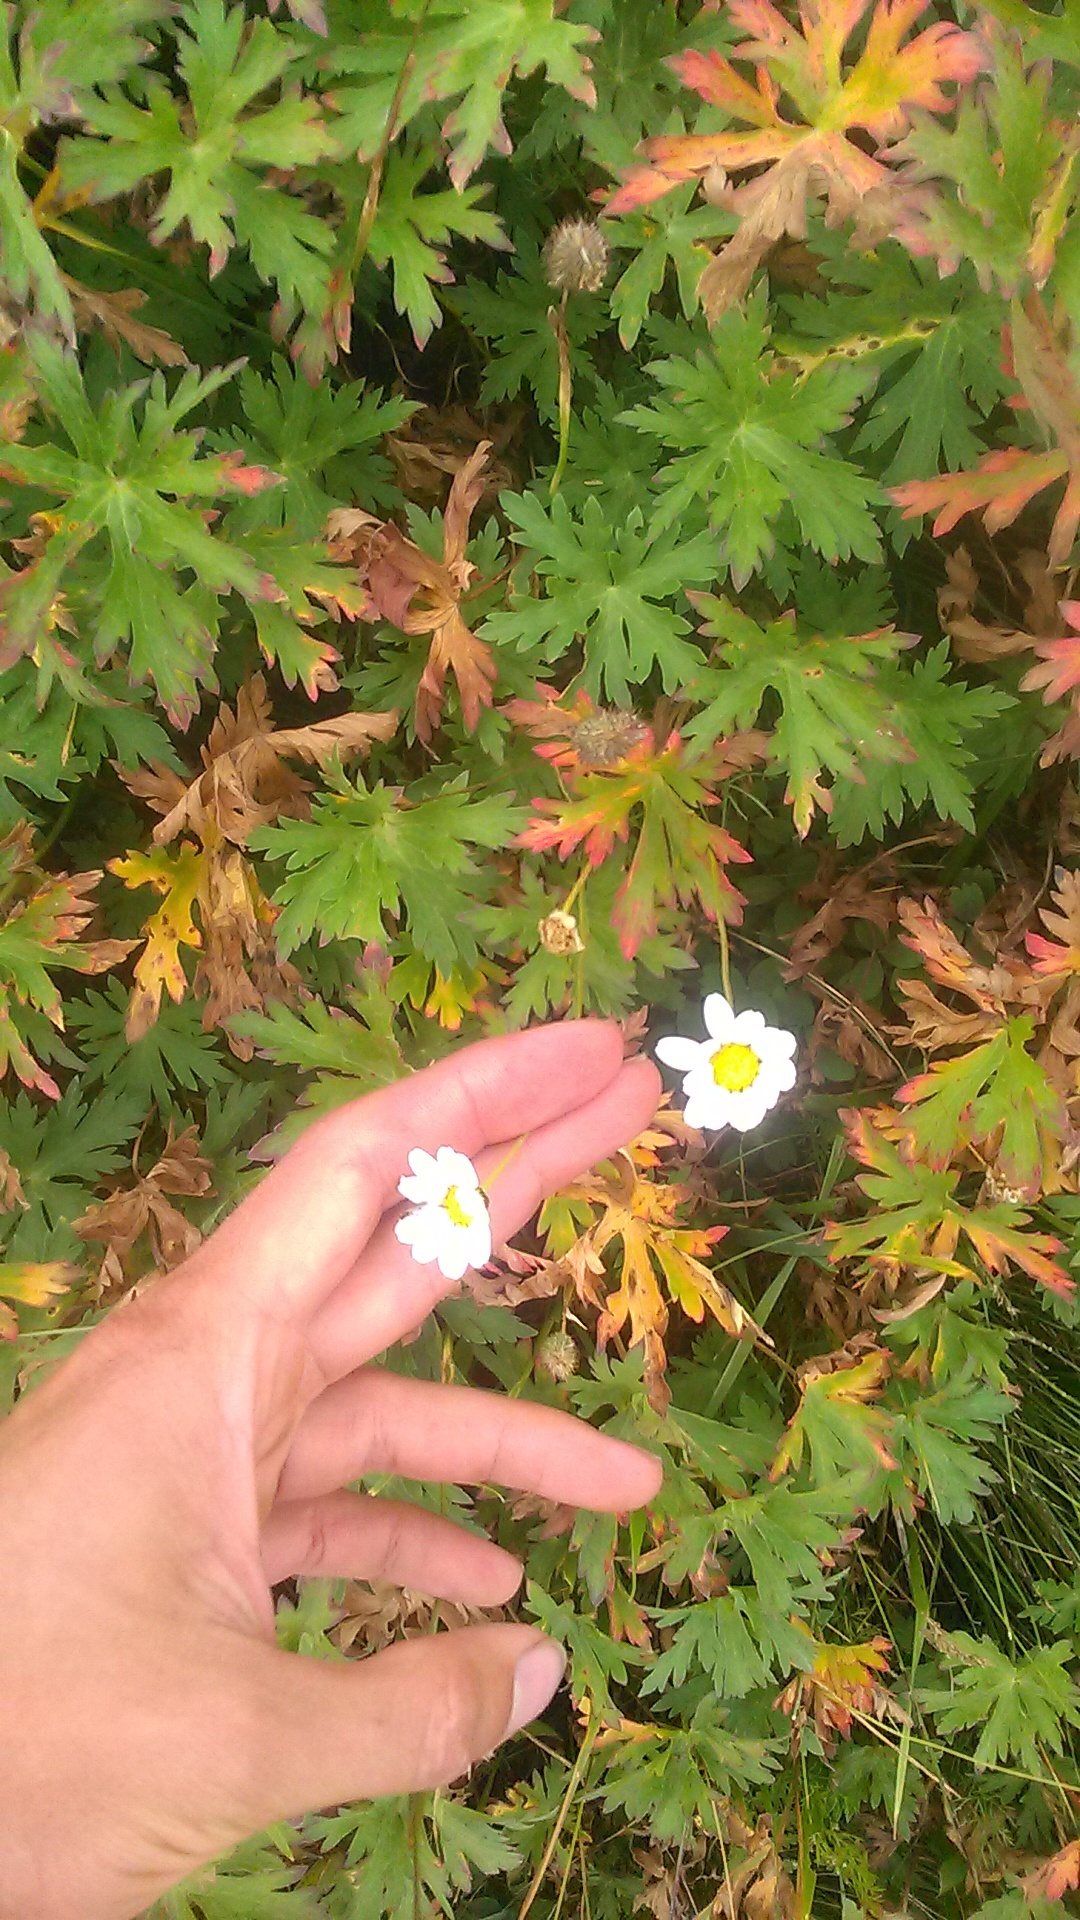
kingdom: Plantae
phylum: Tracheophyta
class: Magnoliopsida
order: Asterales
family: Asteraceae
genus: Tripleurospermum
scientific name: Tripleurospermum caucasicum
